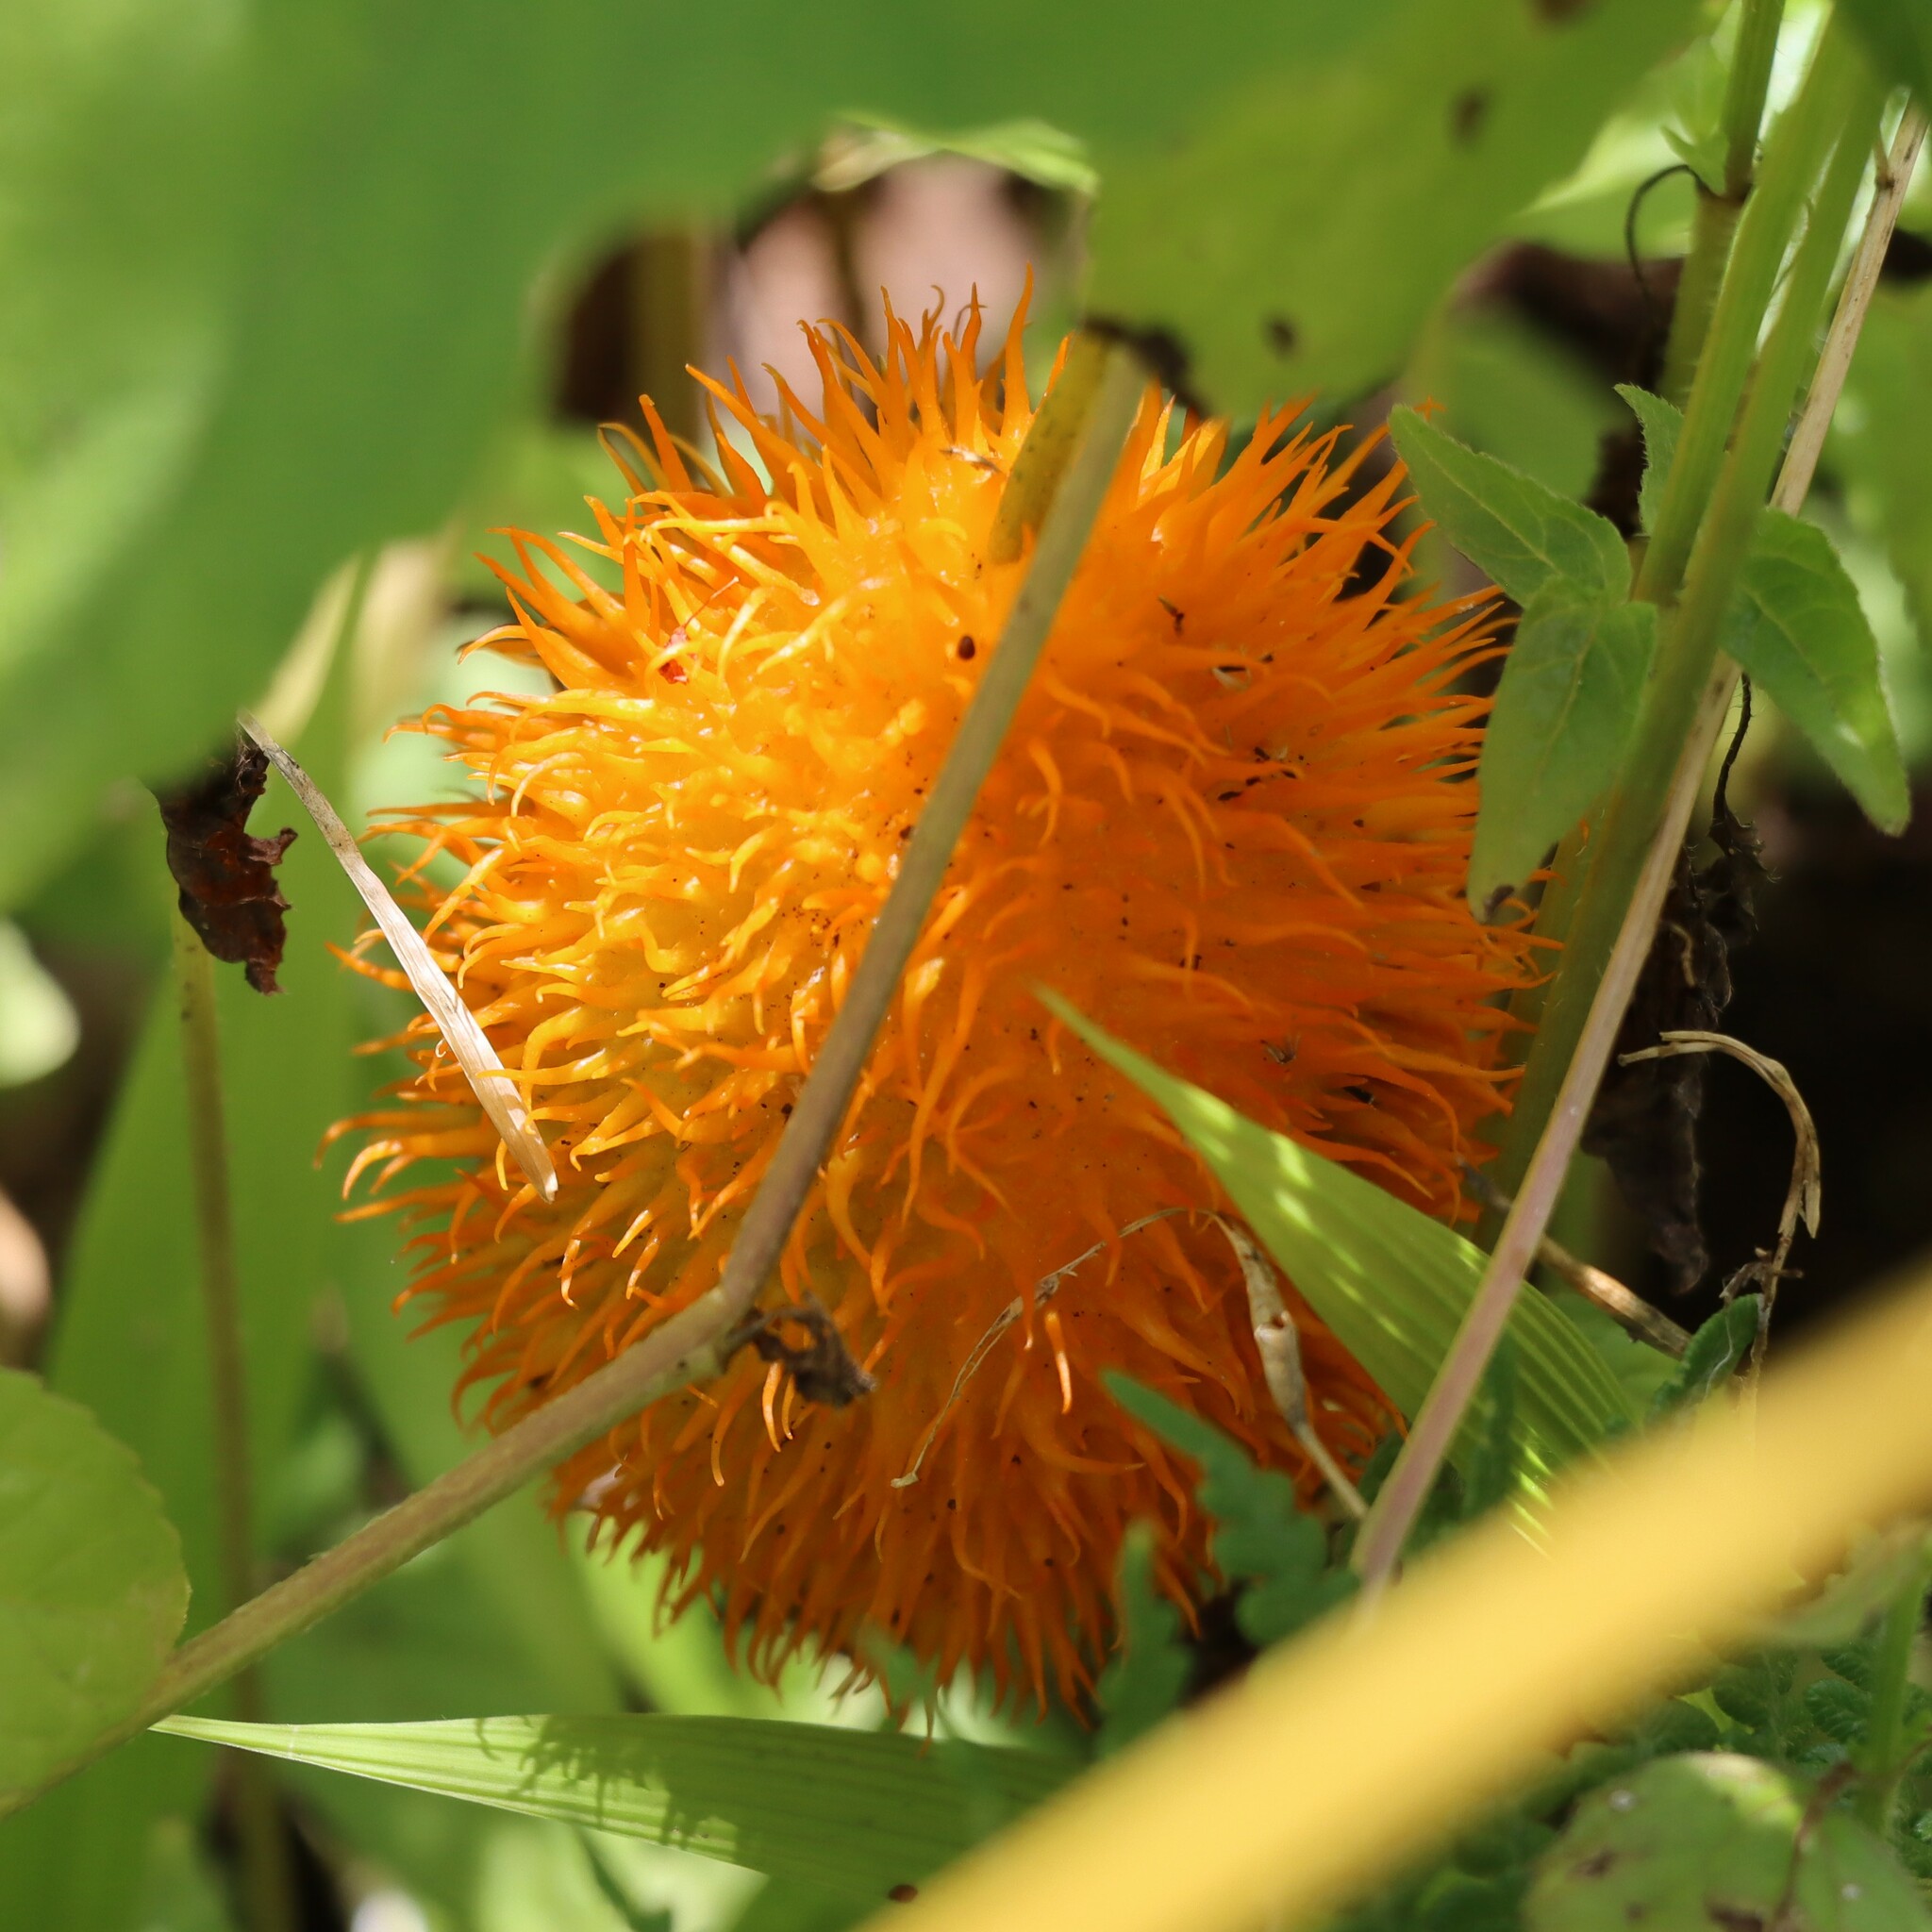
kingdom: Plantae
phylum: Tracheophyta
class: Magnoliopsida
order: Cucurbitales
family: Cucurbitaceae
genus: Momordica
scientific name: Momordica foetida
